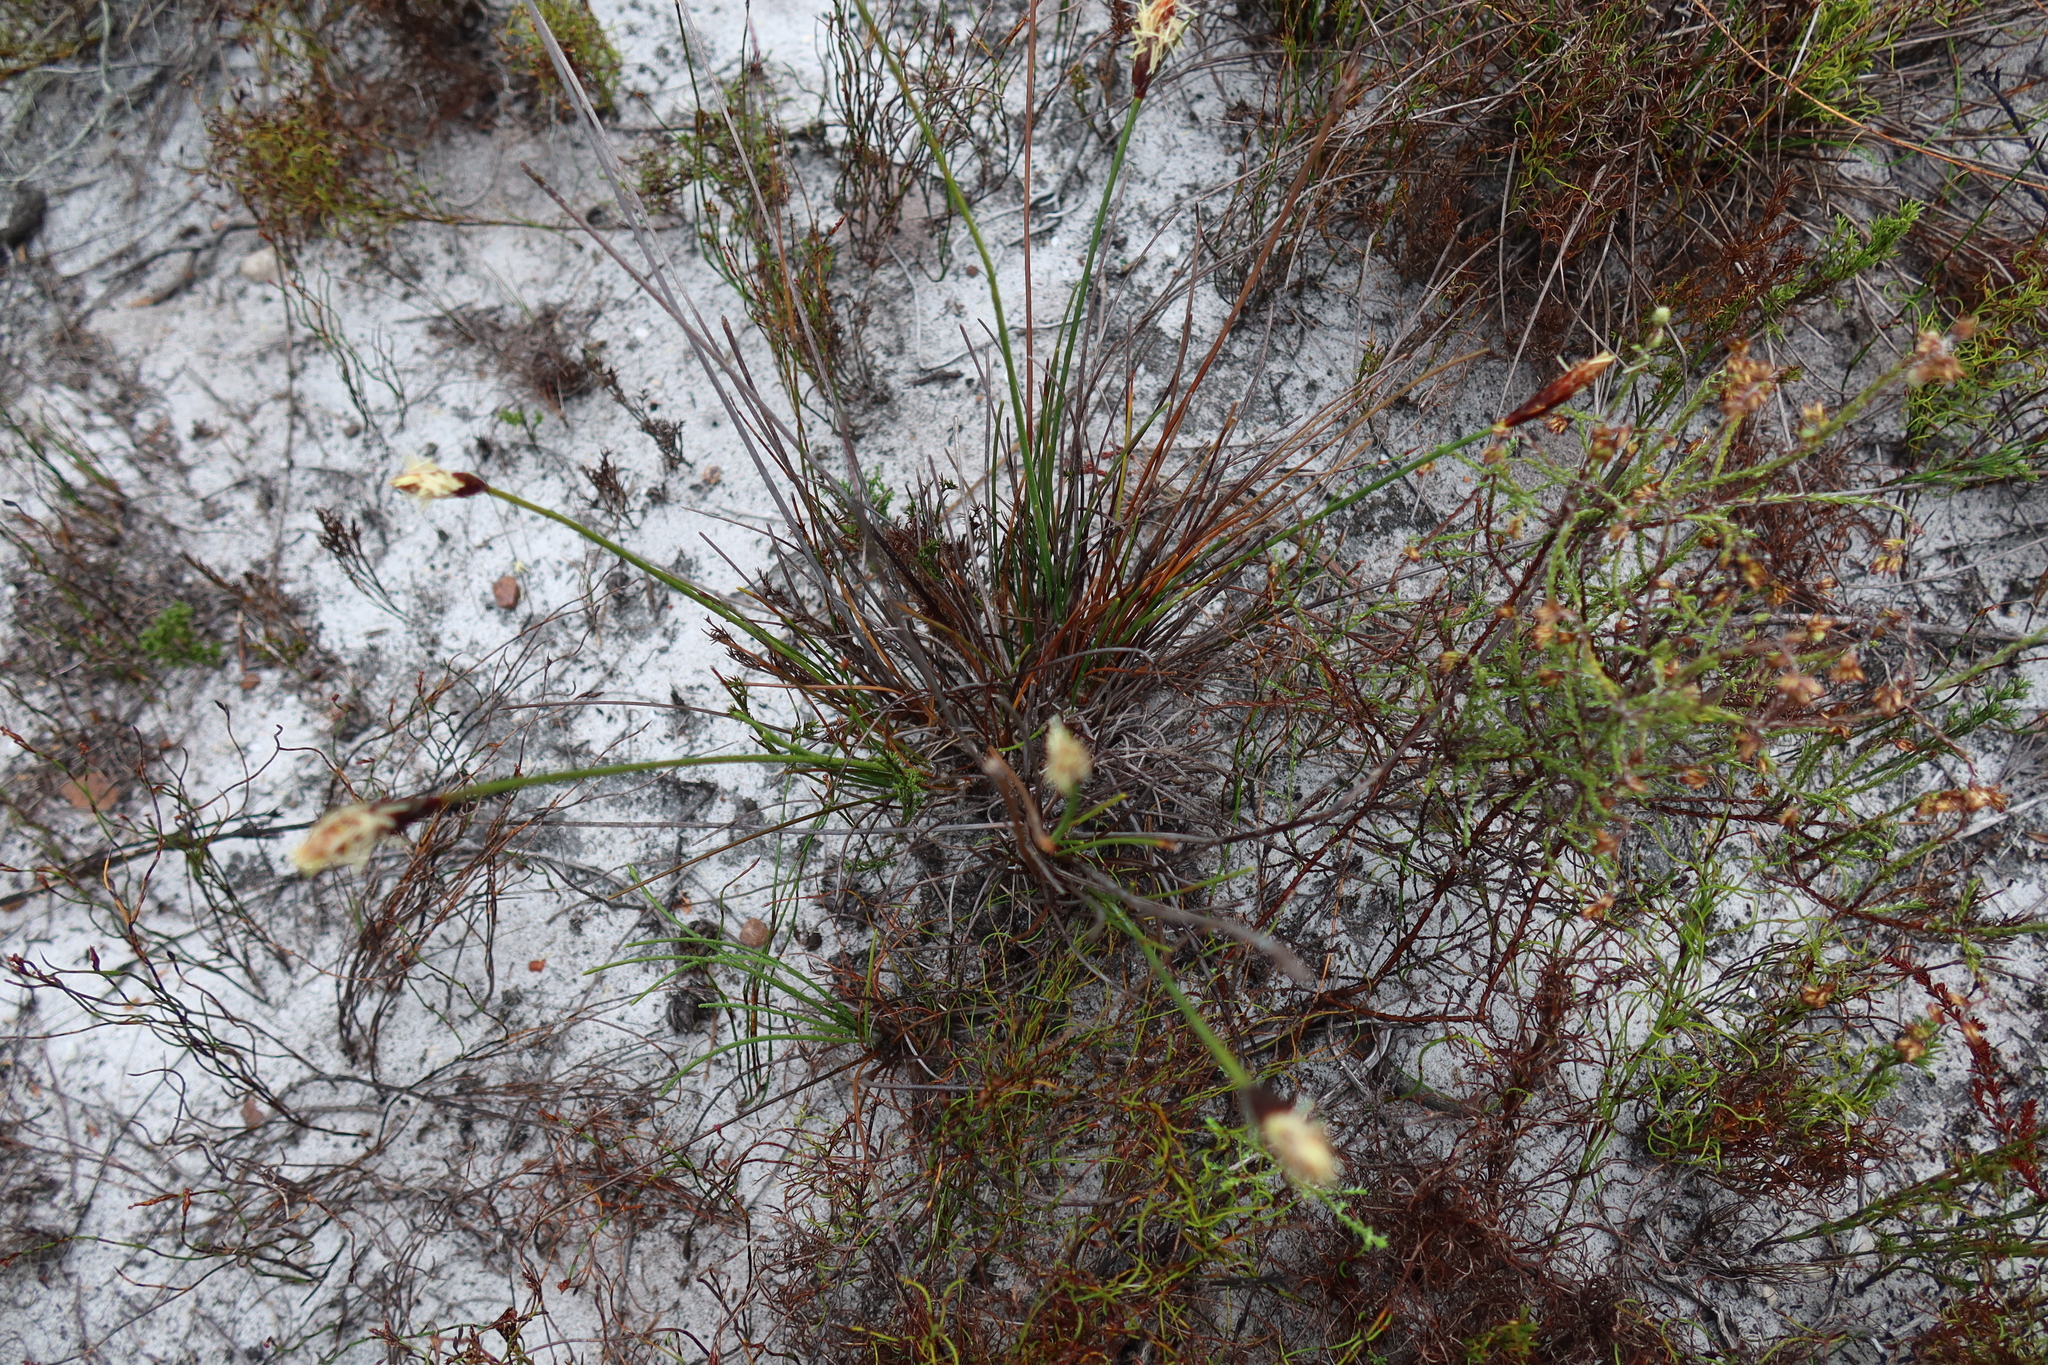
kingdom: Plantae
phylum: Tracheophyta
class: Liliopsida
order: Poales
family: Cyperaceae
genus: Ficinia
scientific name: Ficinia deusta
